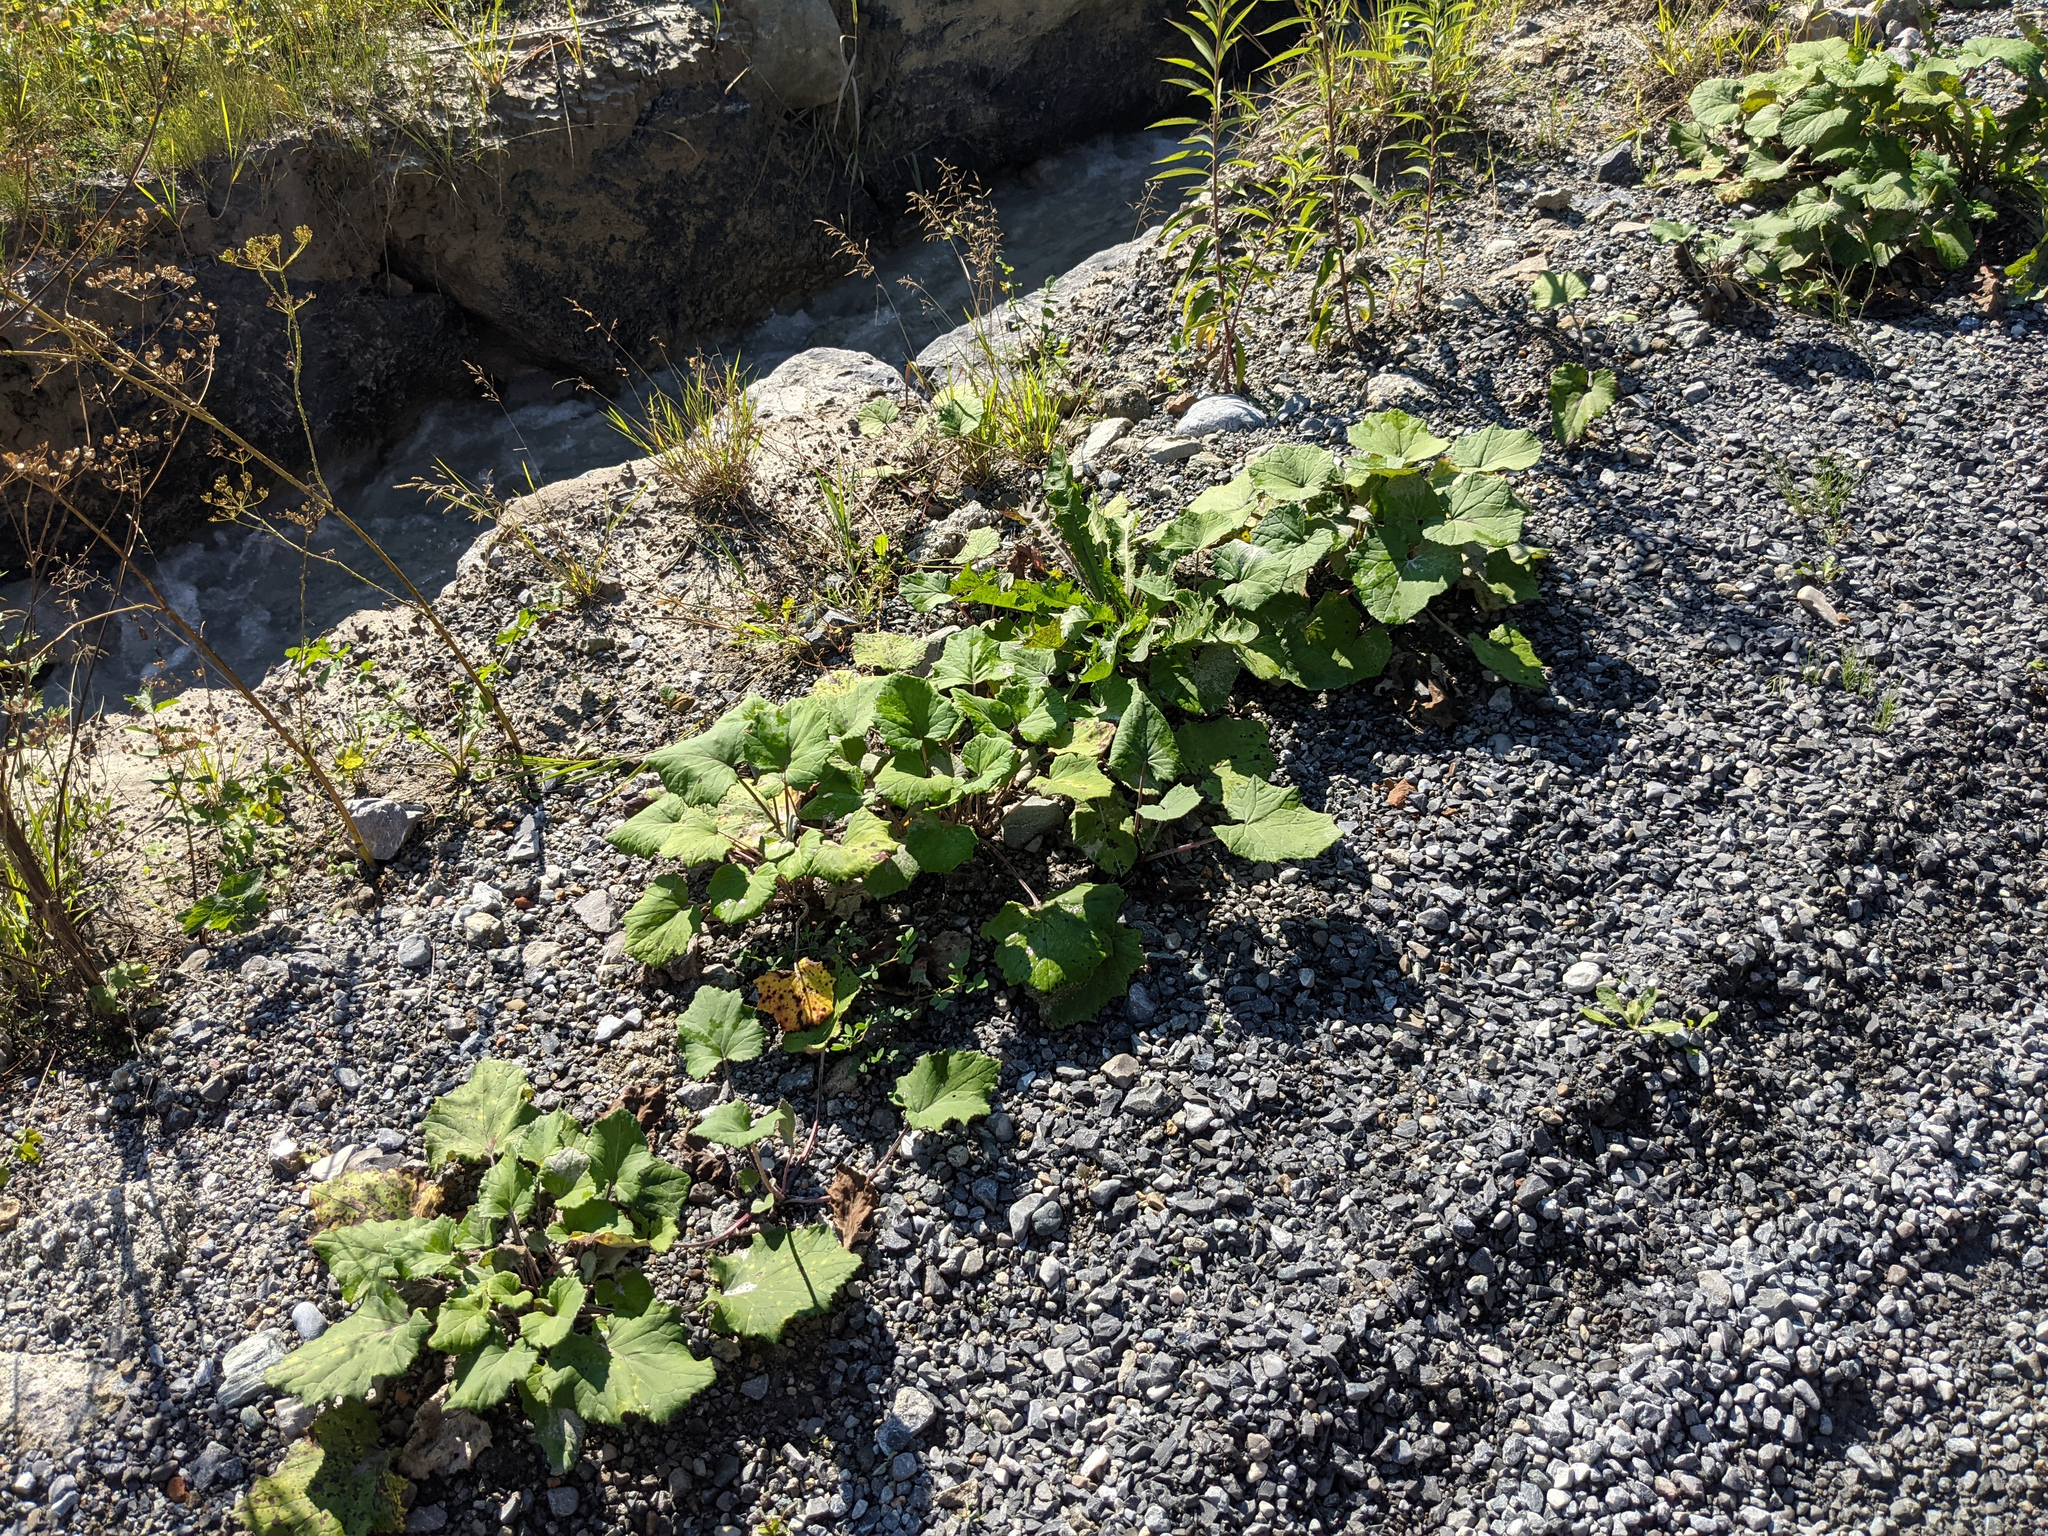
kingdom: Plantae
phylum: Tracheophyta
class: Magnoliopsida
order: Asterales
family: Asteraceae
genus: Tussilago
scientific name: Tussilago farfara
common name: Coltsfoot
